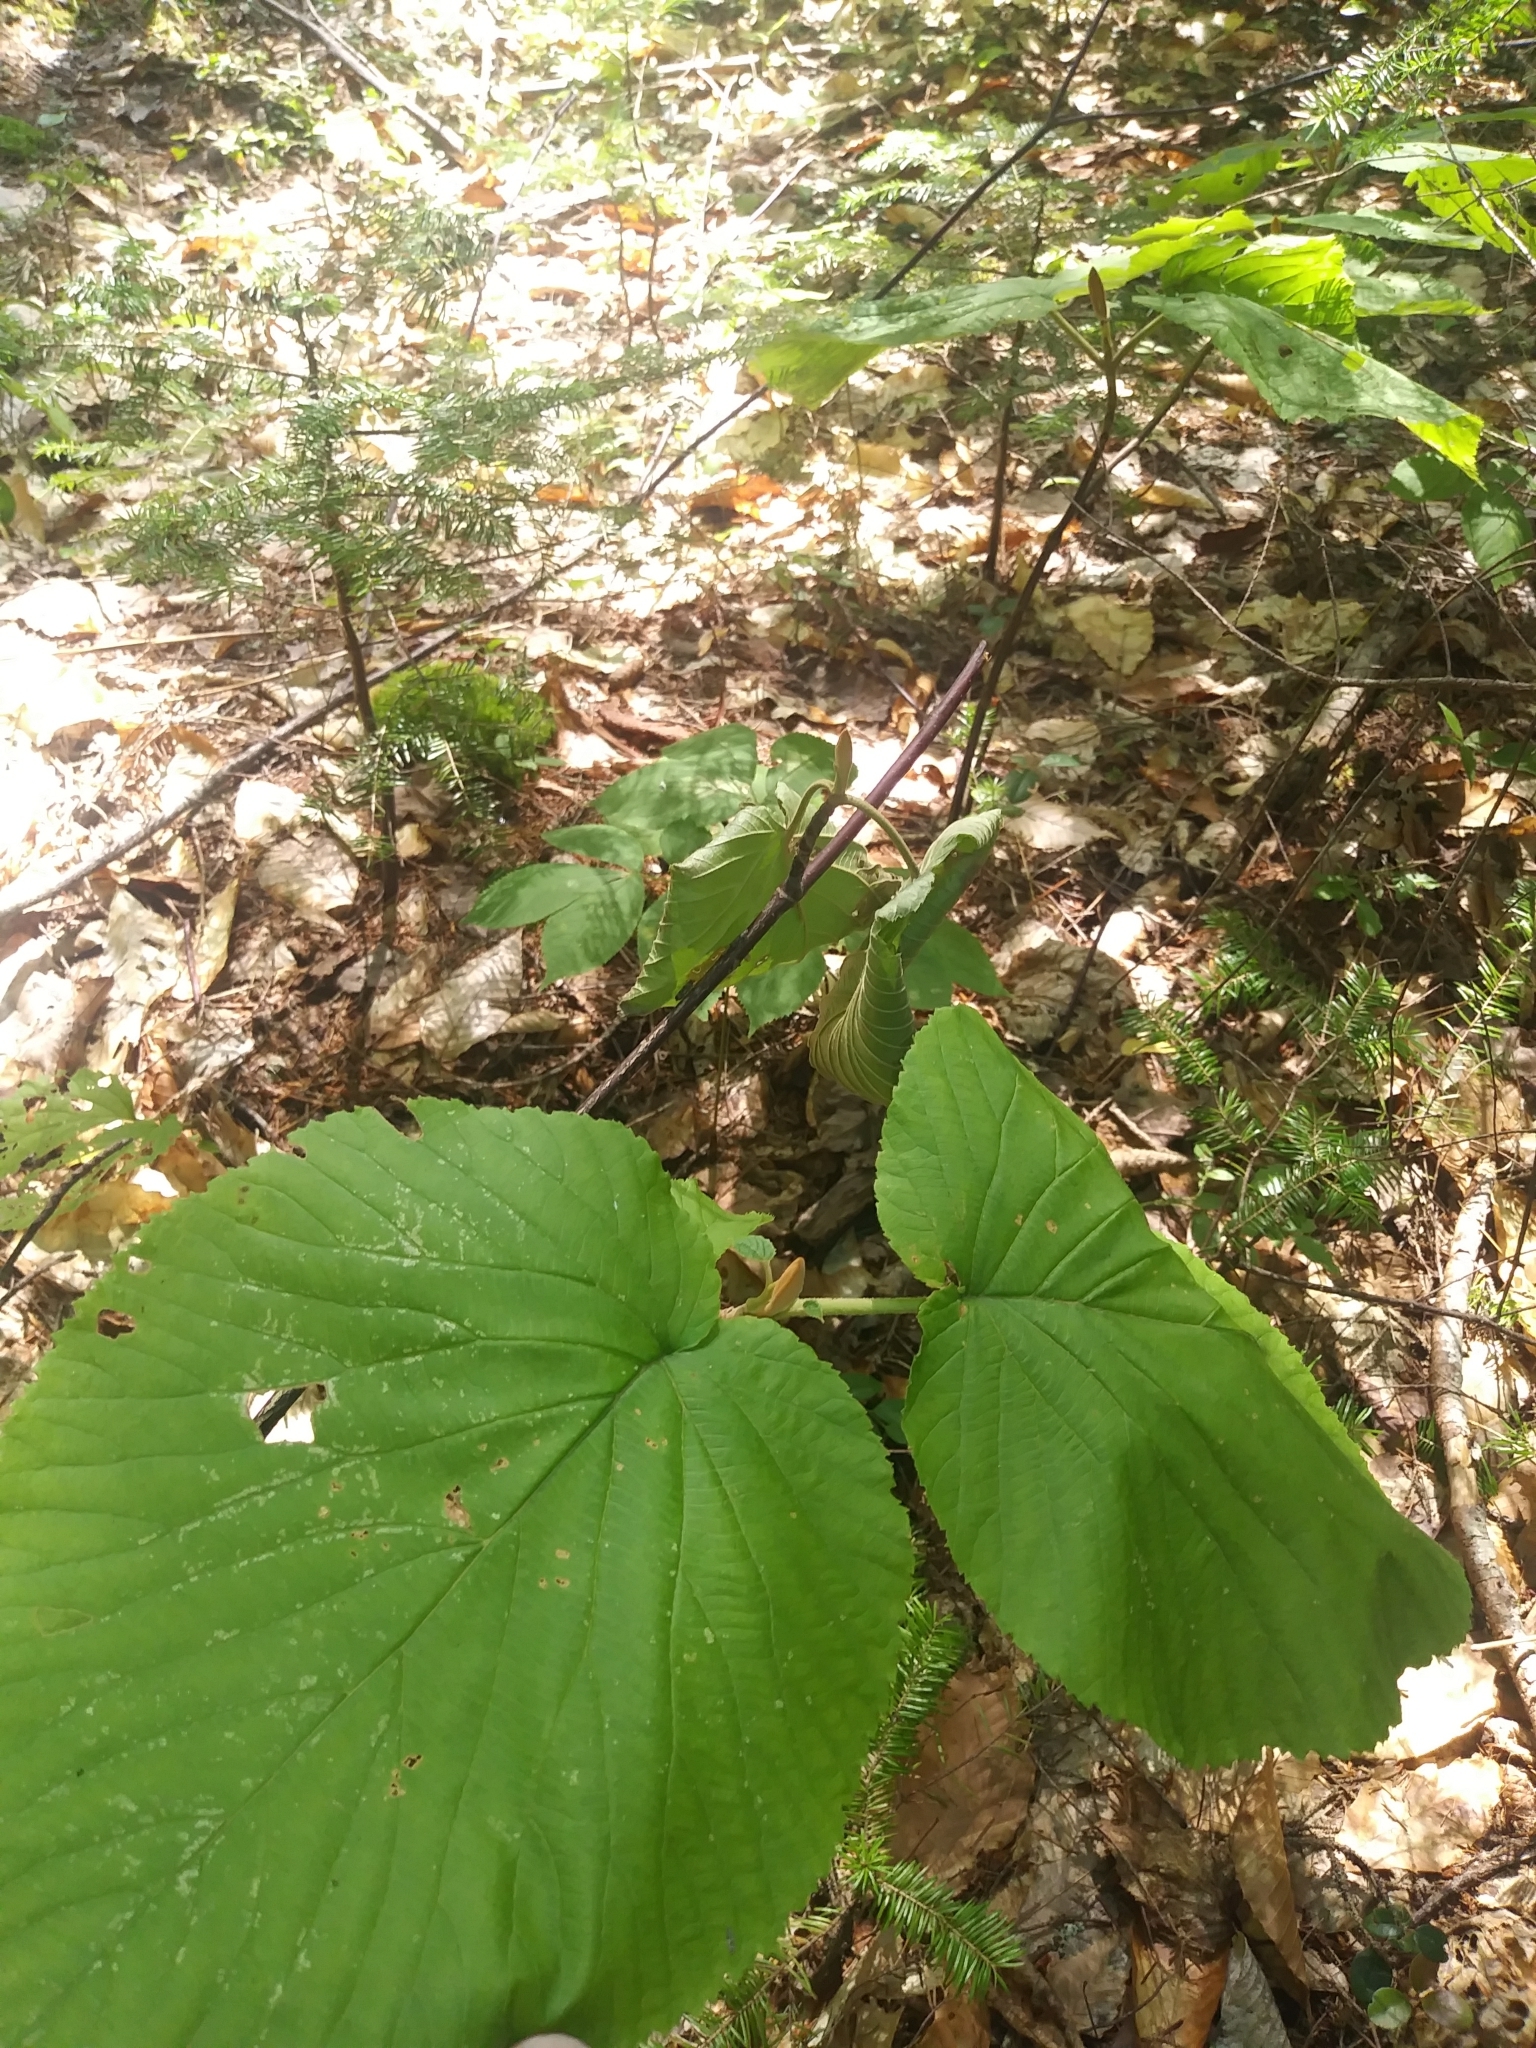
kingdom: Plantae
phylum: Tracheophyta
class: Magnoliopsida
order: Dipsacales
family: Viburnaceae
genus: Viburnum
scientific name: Viburnum lantanoides
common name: Hobblebush
